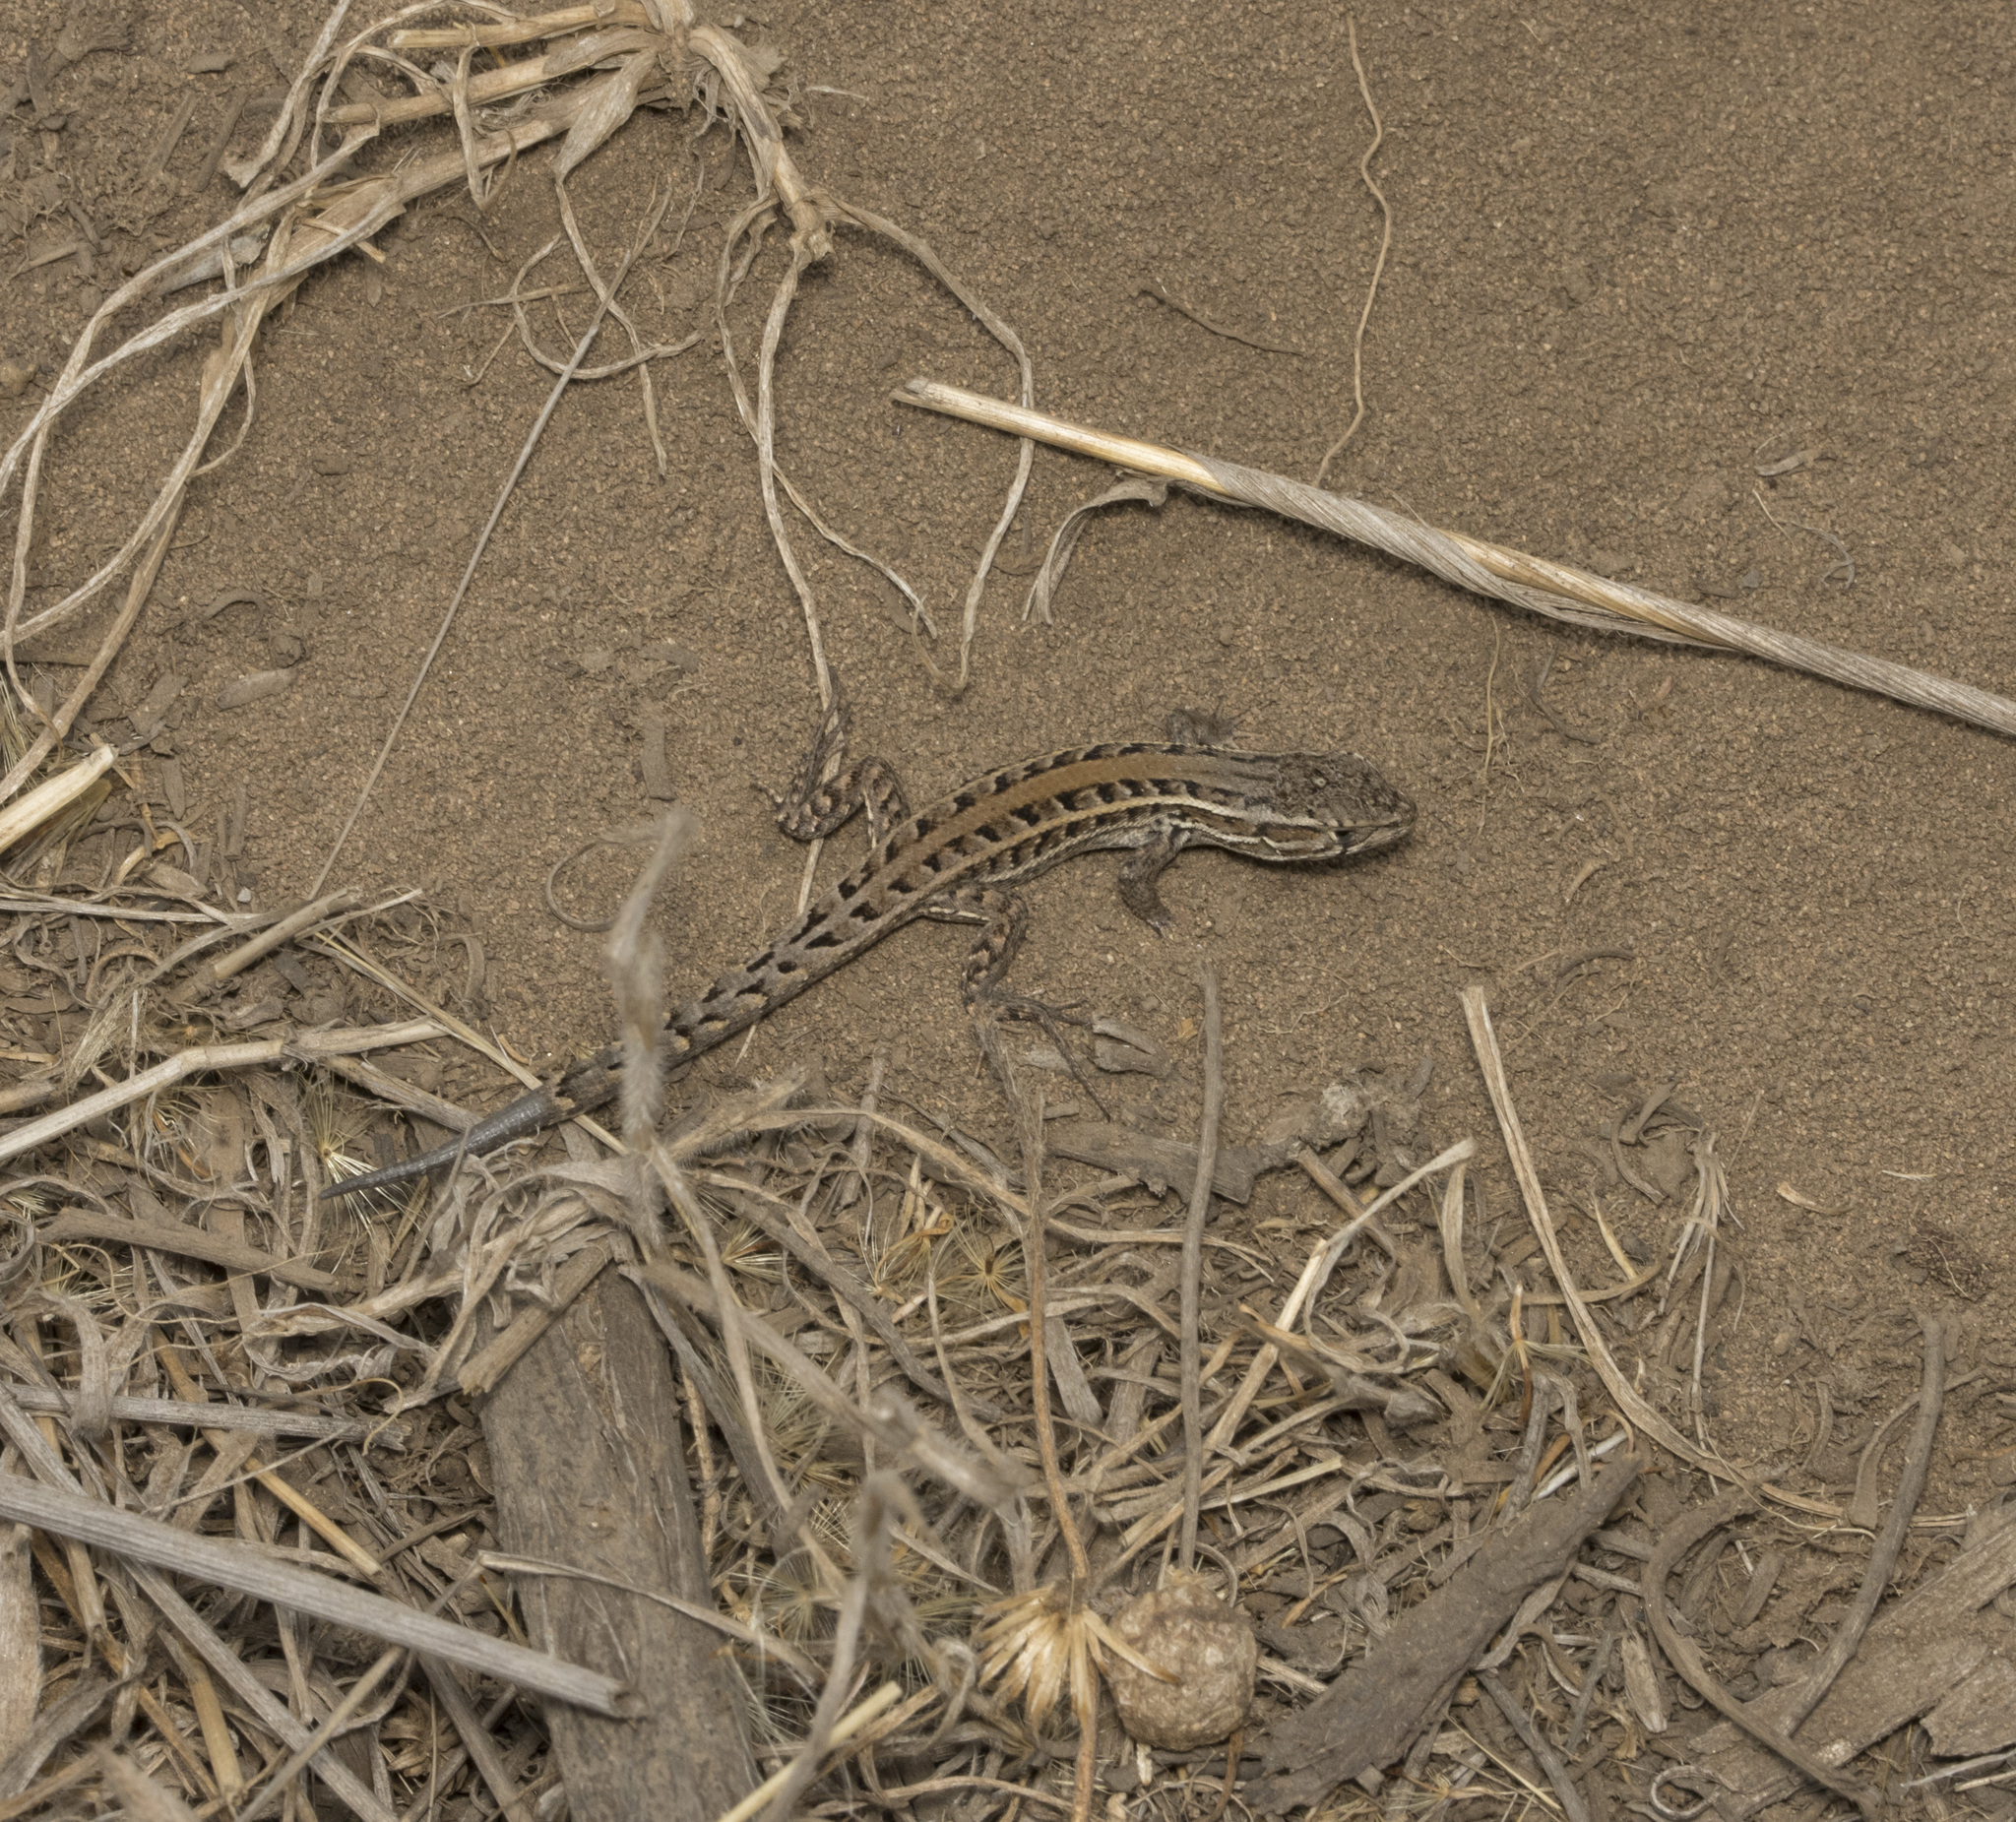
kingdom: Animalia
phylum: Chordata
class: Squamata
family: Liolaemidae
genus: Liolaemus
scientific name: Liolaemus lemniscatus
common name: Wreath tree iguana
